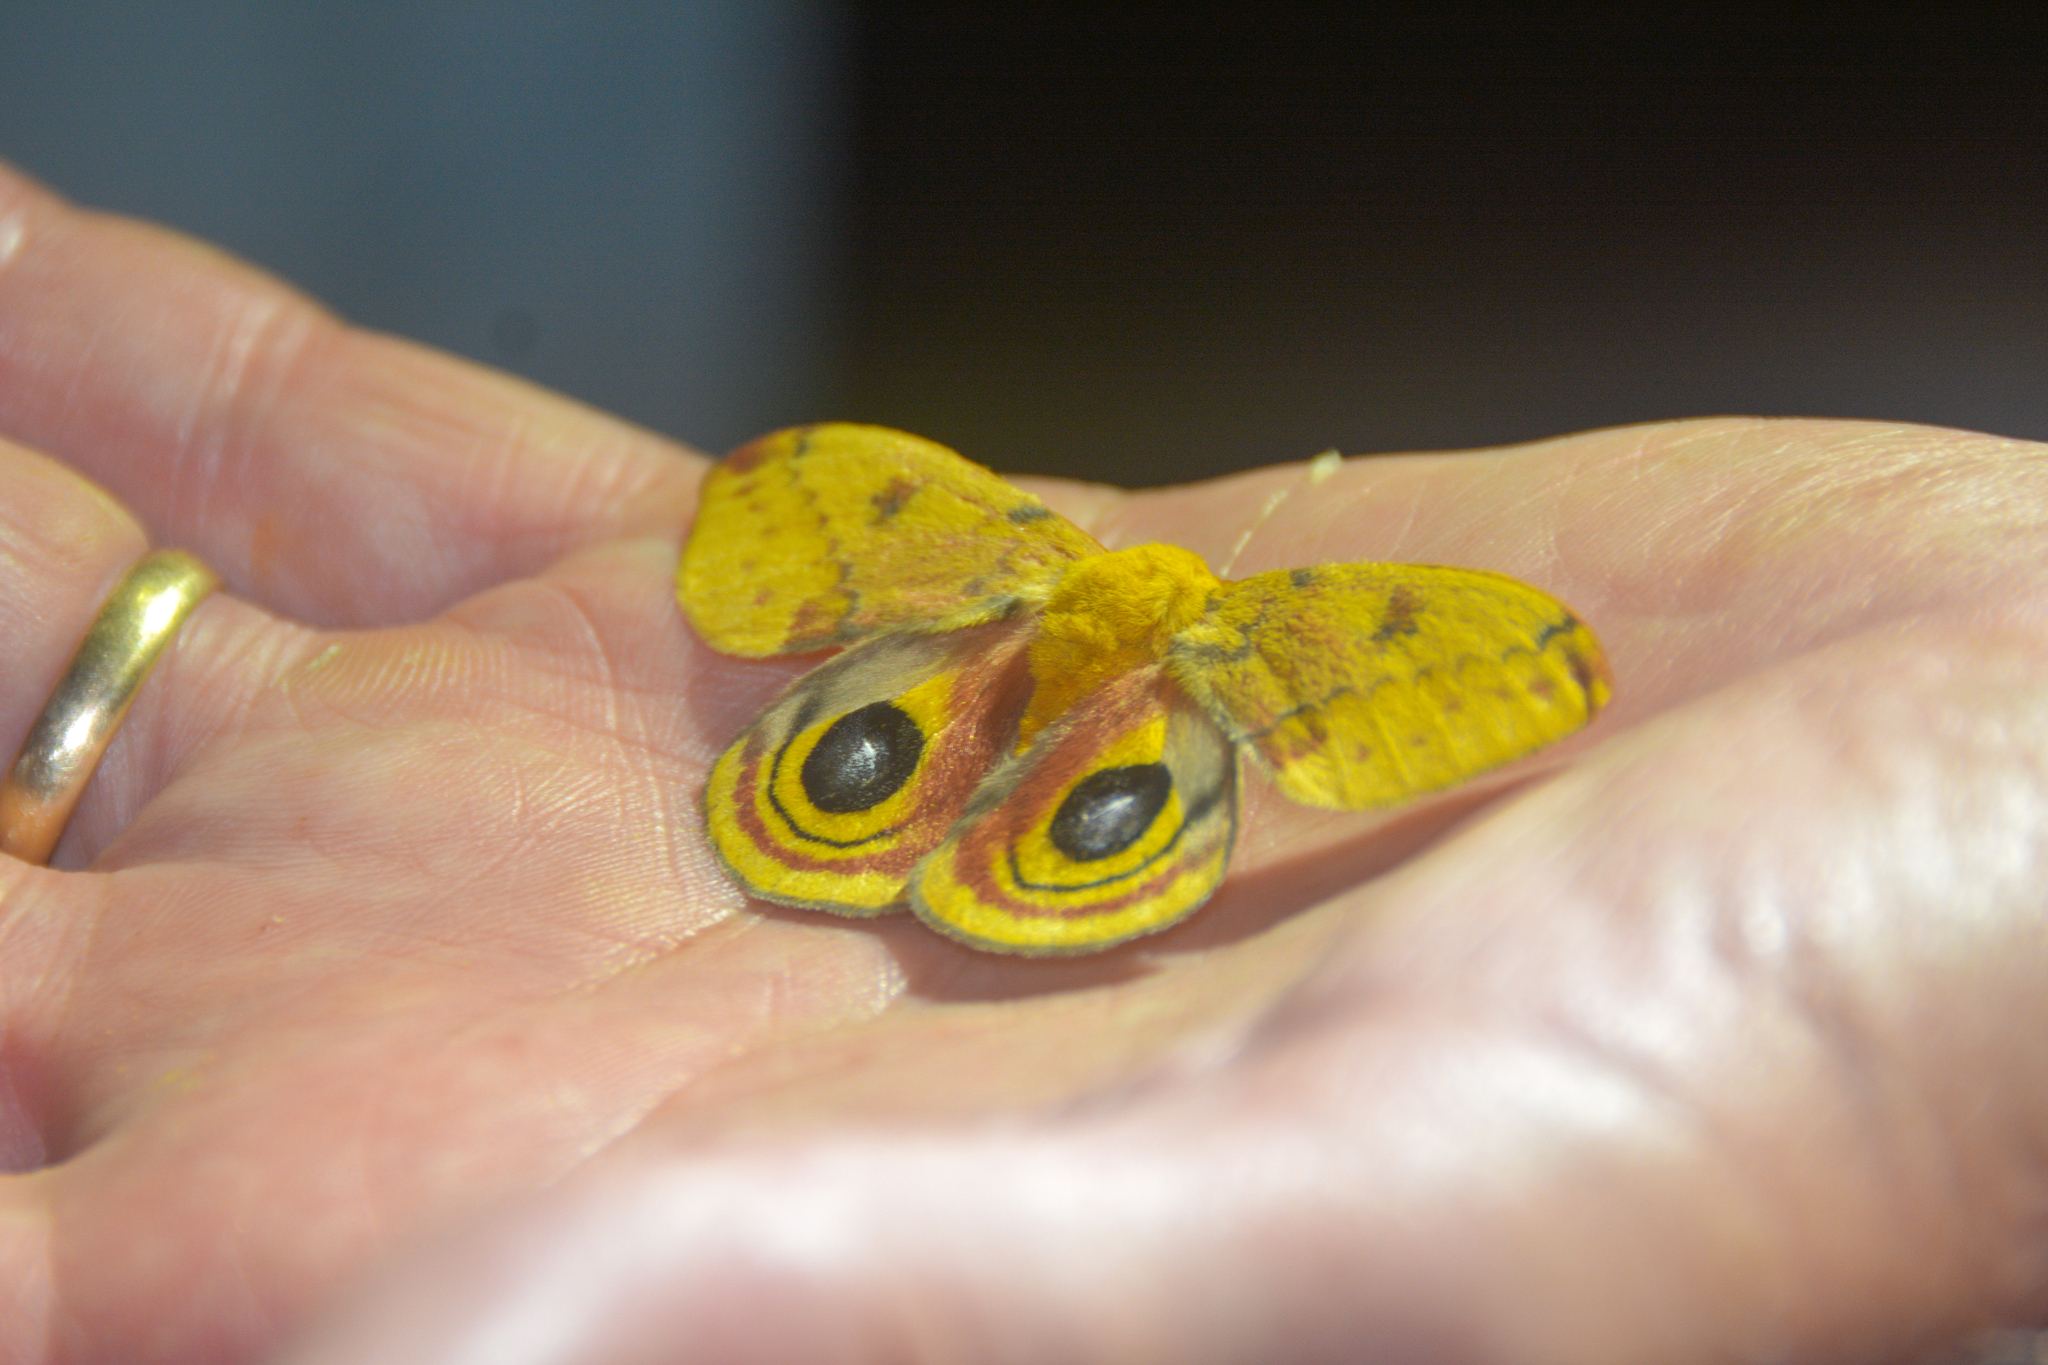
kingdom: Animalia
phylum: Arthropoda
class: Insecta
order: Lepidoptera
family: Saturniidae
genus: Automeris
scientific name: Automeris io
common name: Io moth
